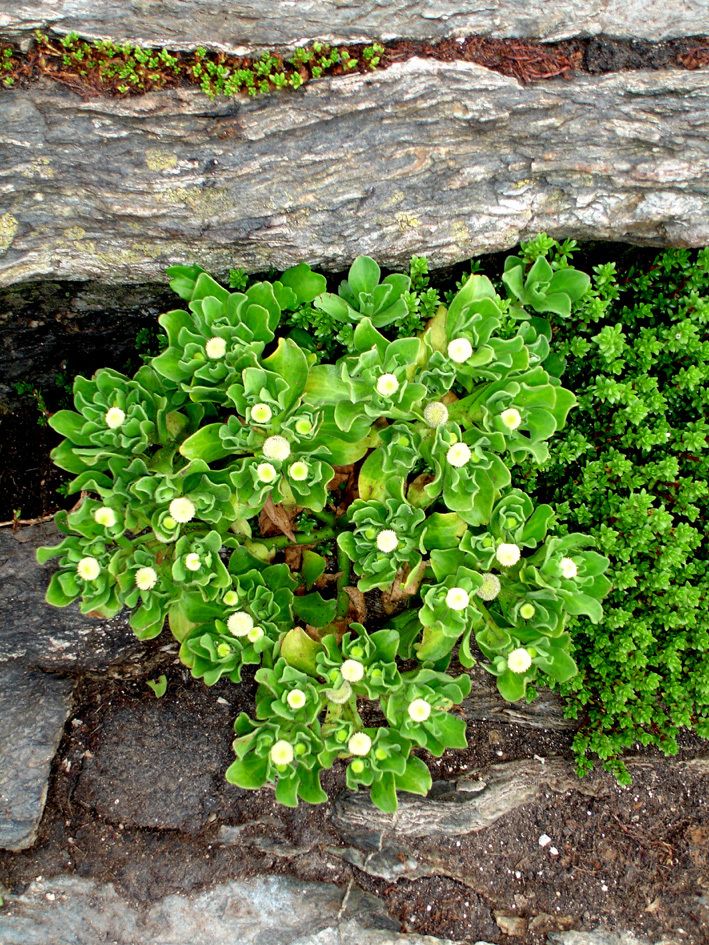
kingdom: Plantae
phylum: Tracheophyta
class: Magnoliopsida
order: Asterales
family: Asteraceae
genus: Leptinella
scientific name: Leptinella featherstonii
